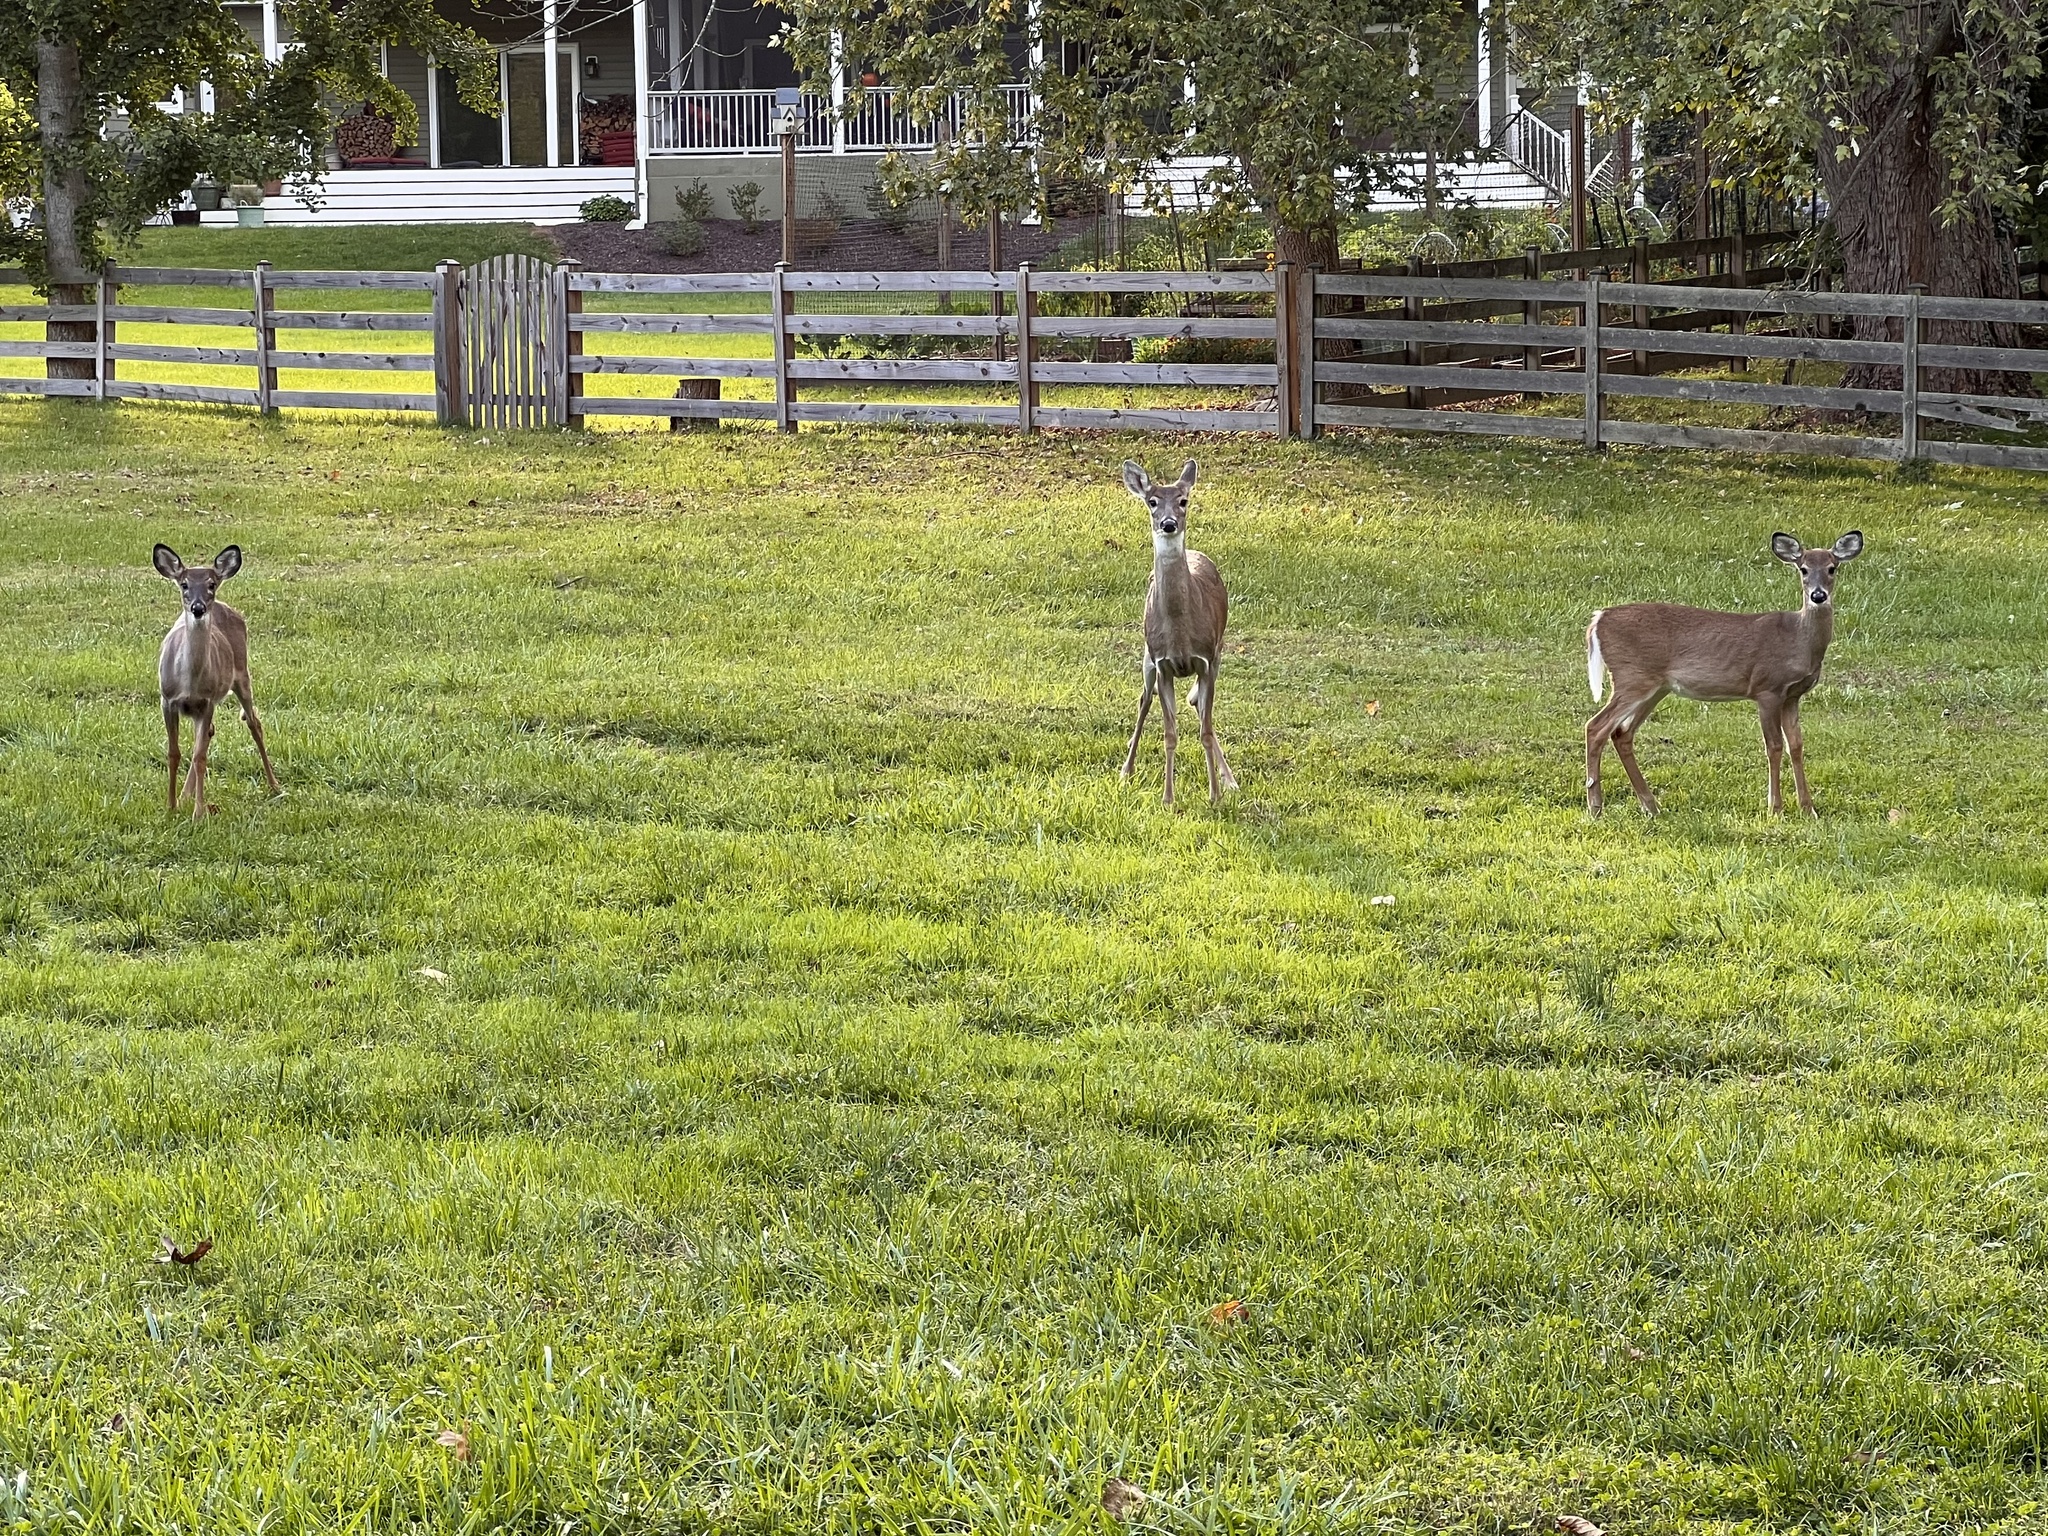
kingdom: Animalia
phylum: Chordata
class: Mammalia
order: Artiodactyla
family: Cervidae
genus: Odocoileus
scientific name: Odocoileus virginianus
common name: White-tailed deer
